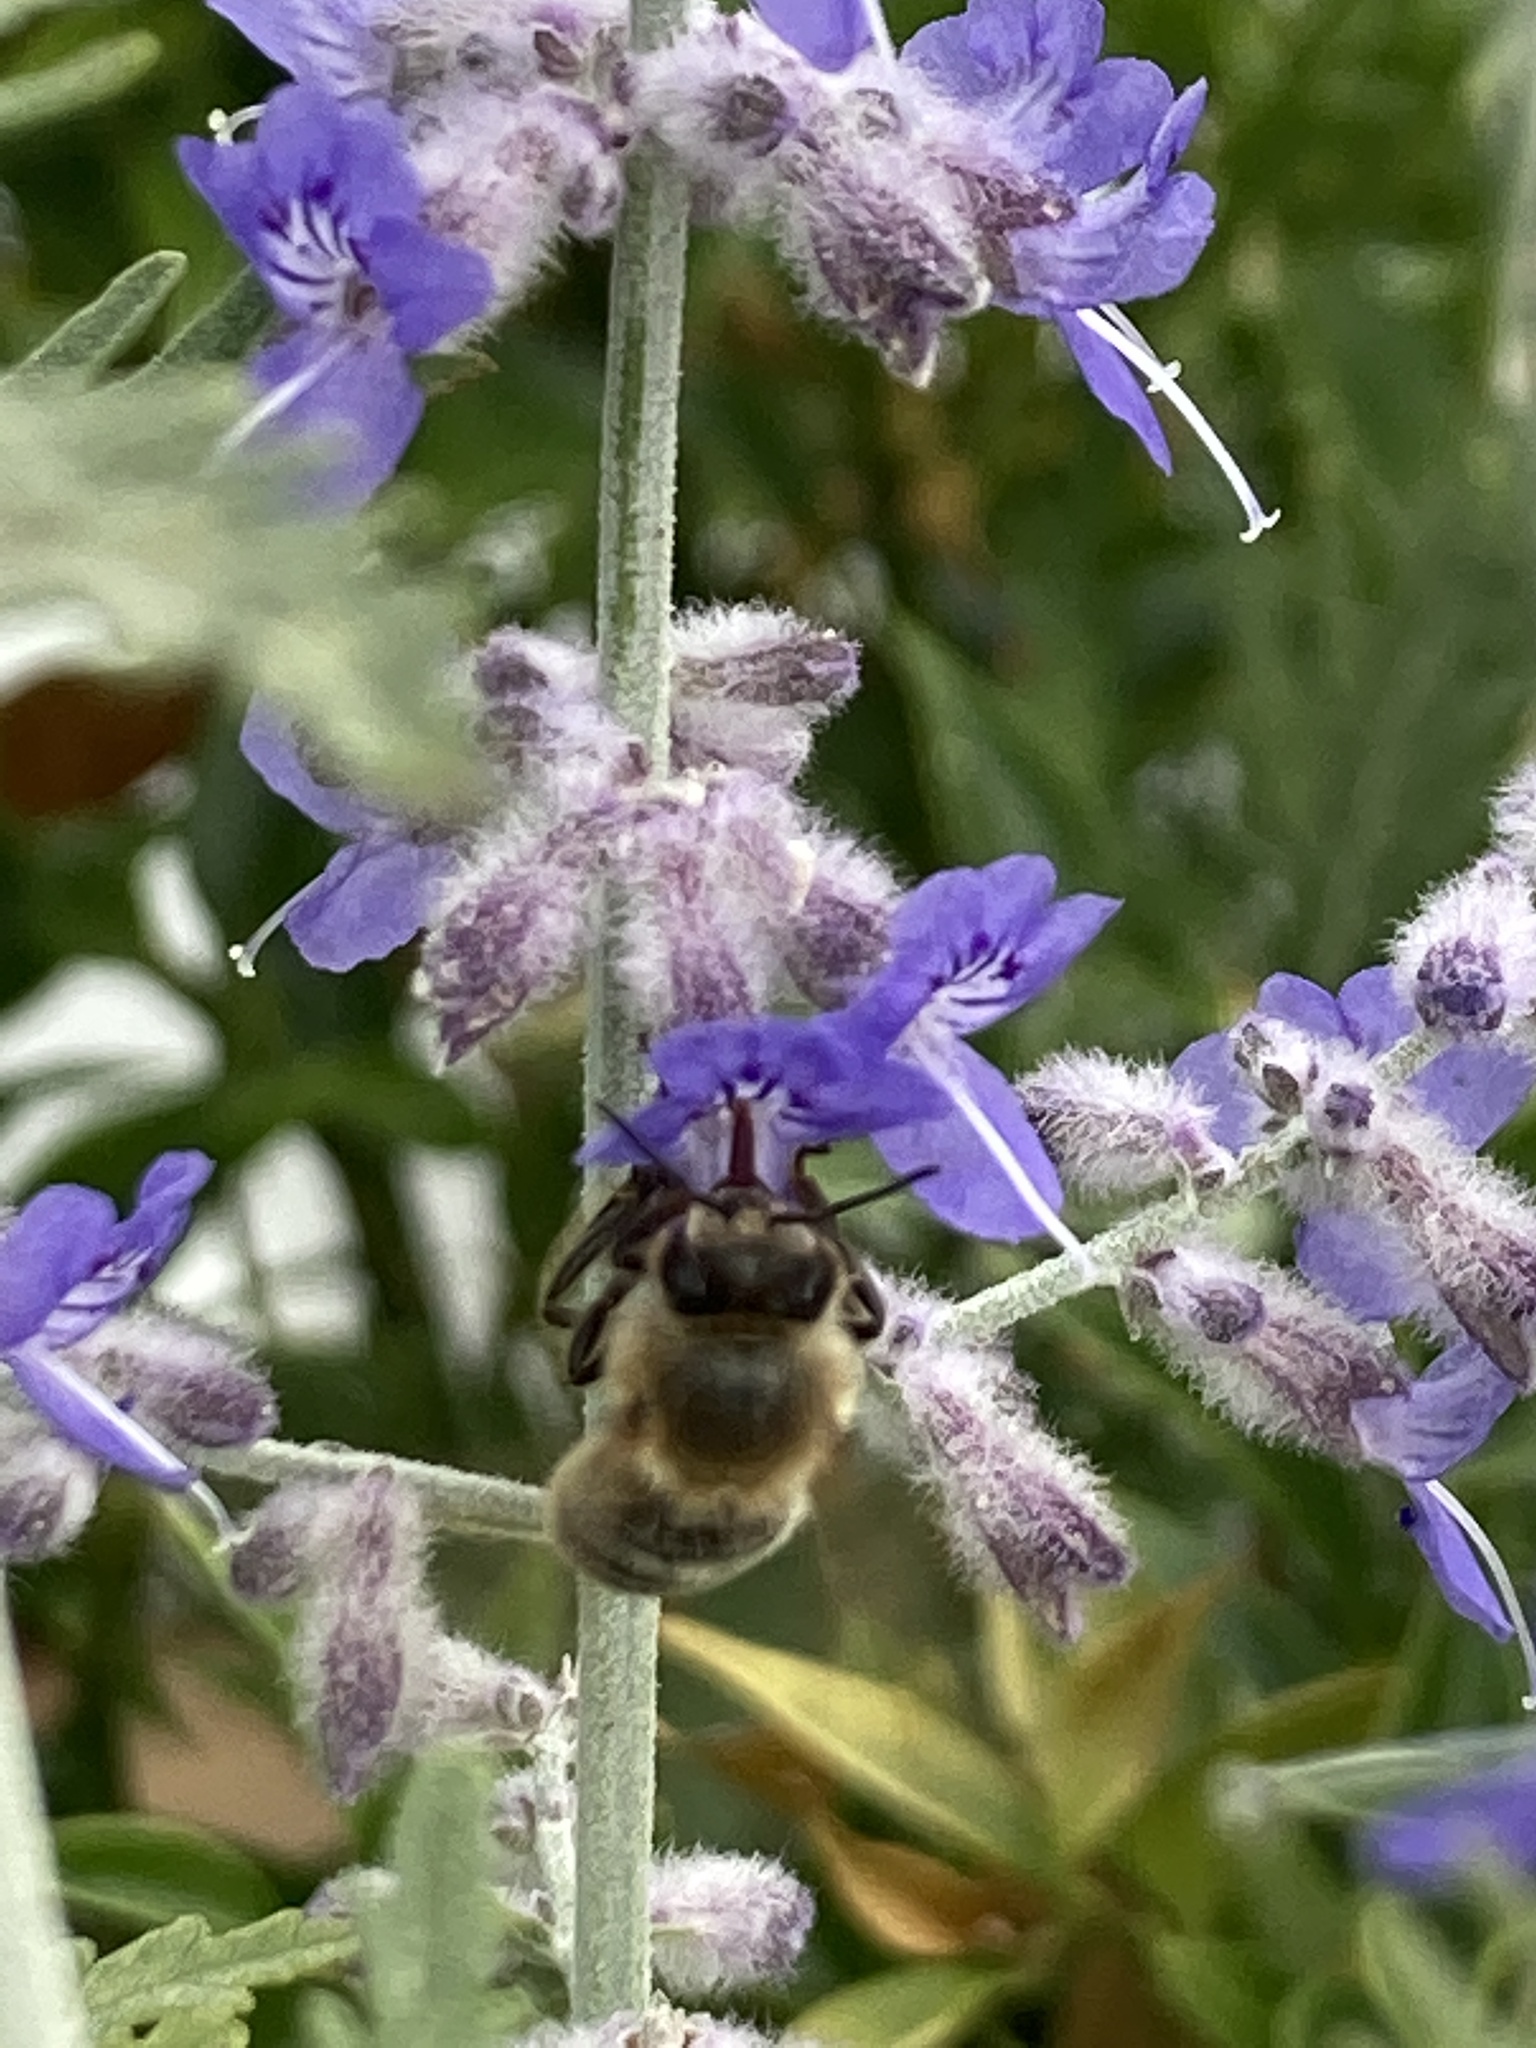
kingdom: Animalia
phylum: Arthropoda
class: Insecta
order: Hymenoptera
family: Apidae
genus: Apis
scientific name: Apis mellifera
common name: Honey bee
